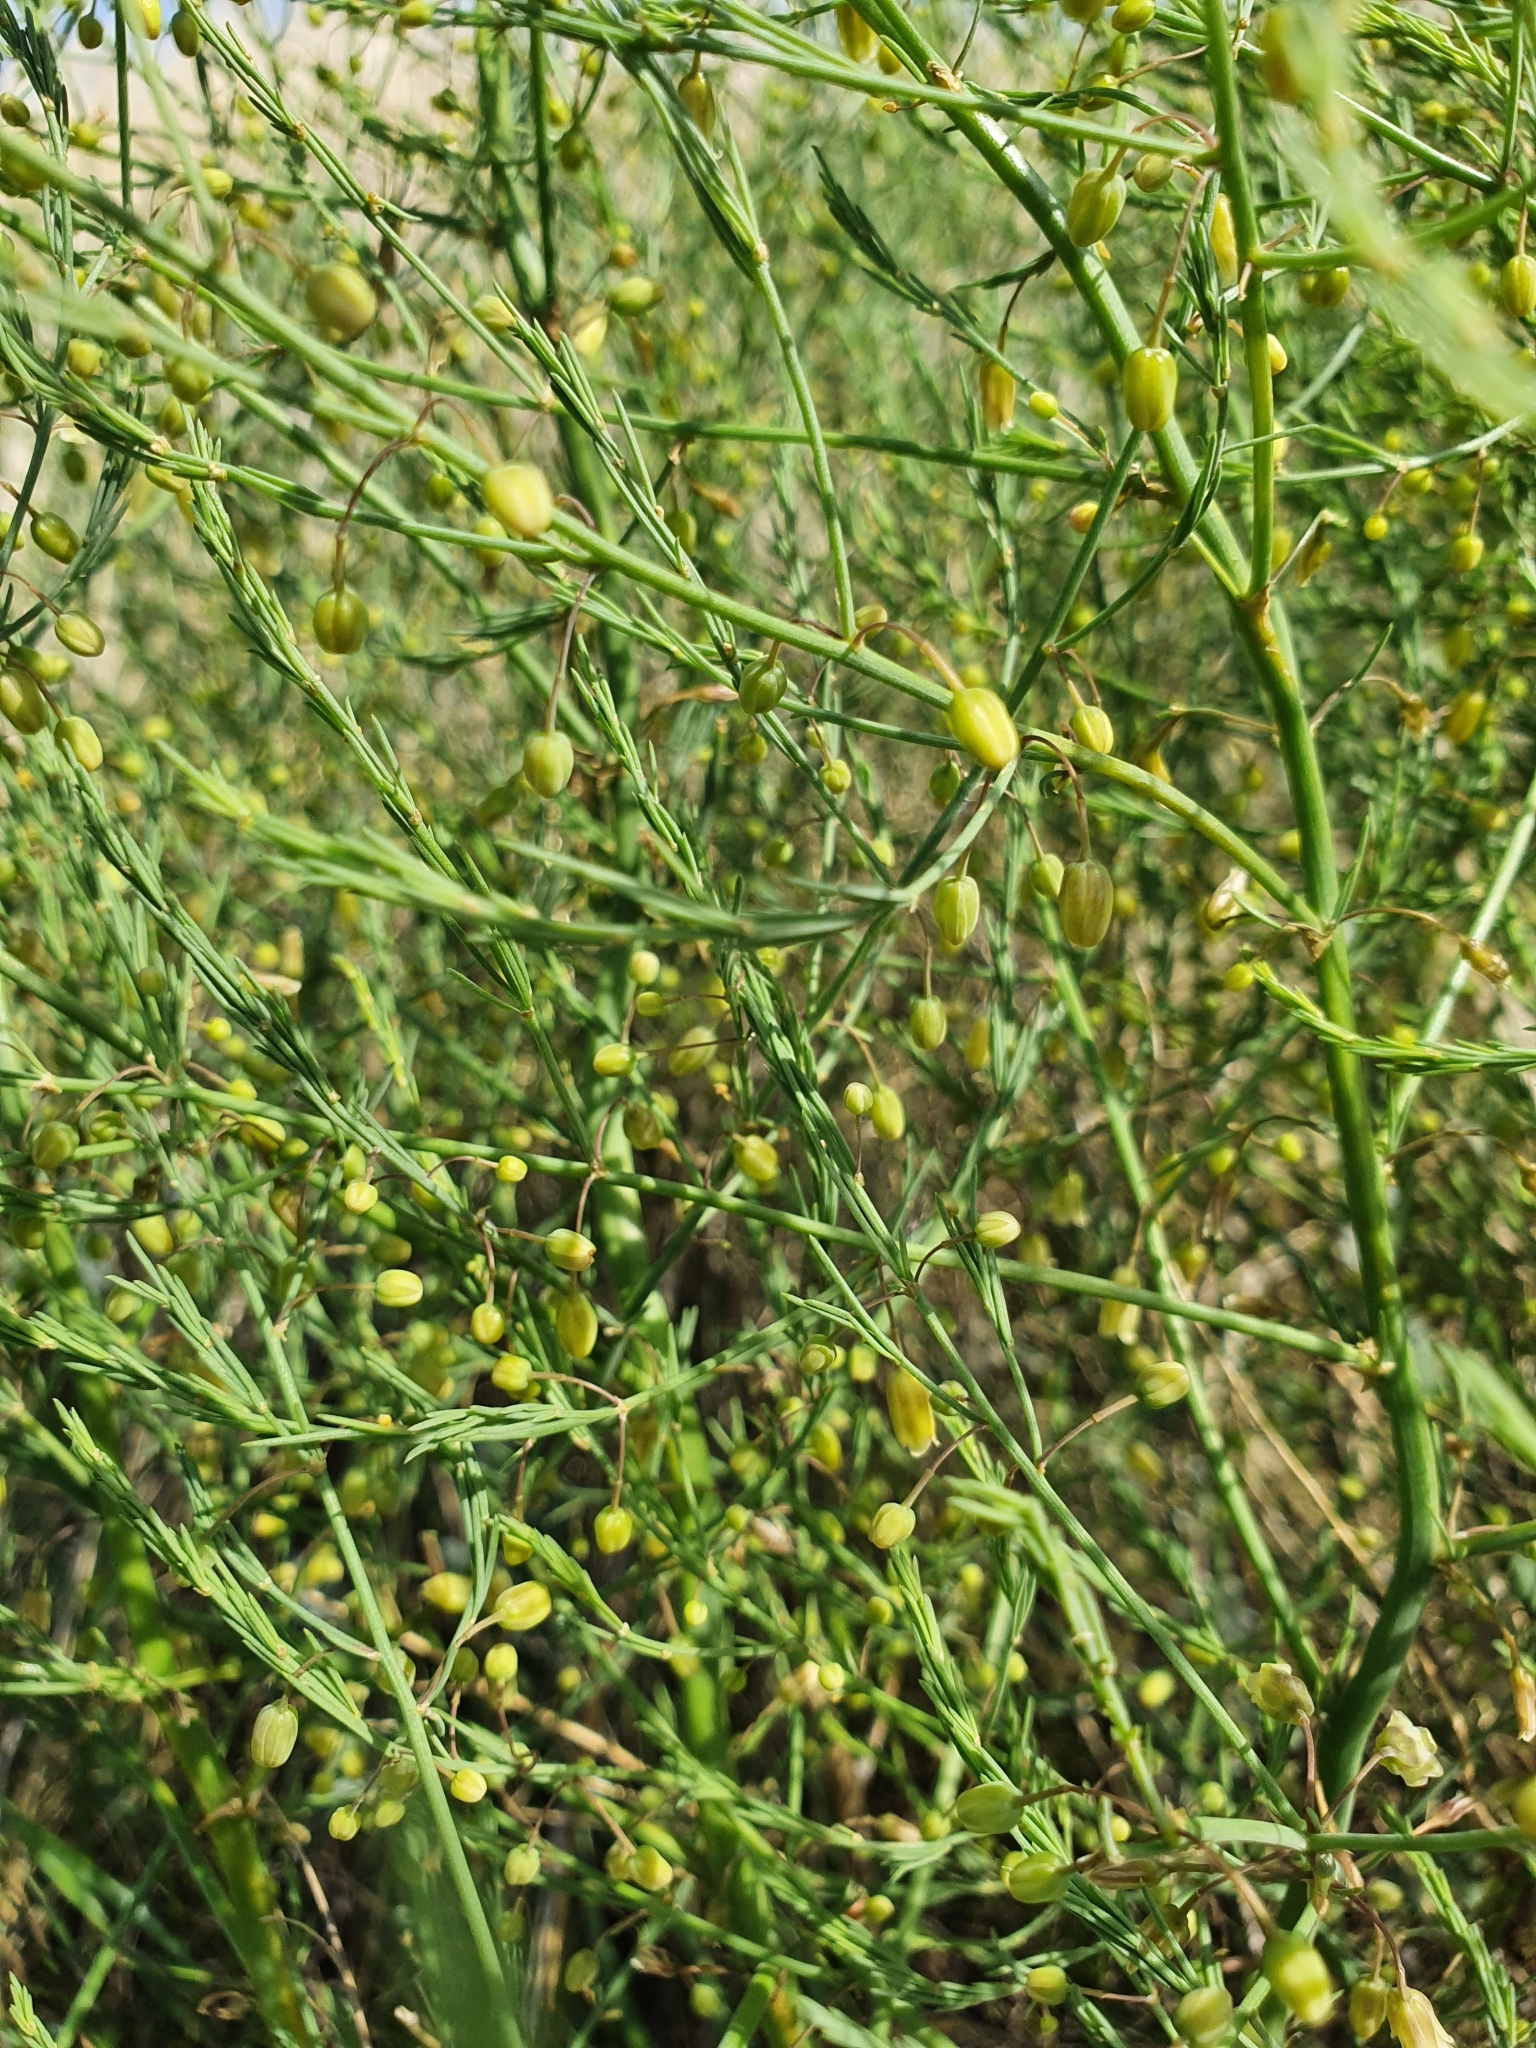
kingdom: Plantae
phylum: Tracheophyta
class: Liliopsida
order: Asparagales
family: Asparagaceae
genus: Asparagus
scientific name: Asparagus officinalis
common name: Garden asparagus
